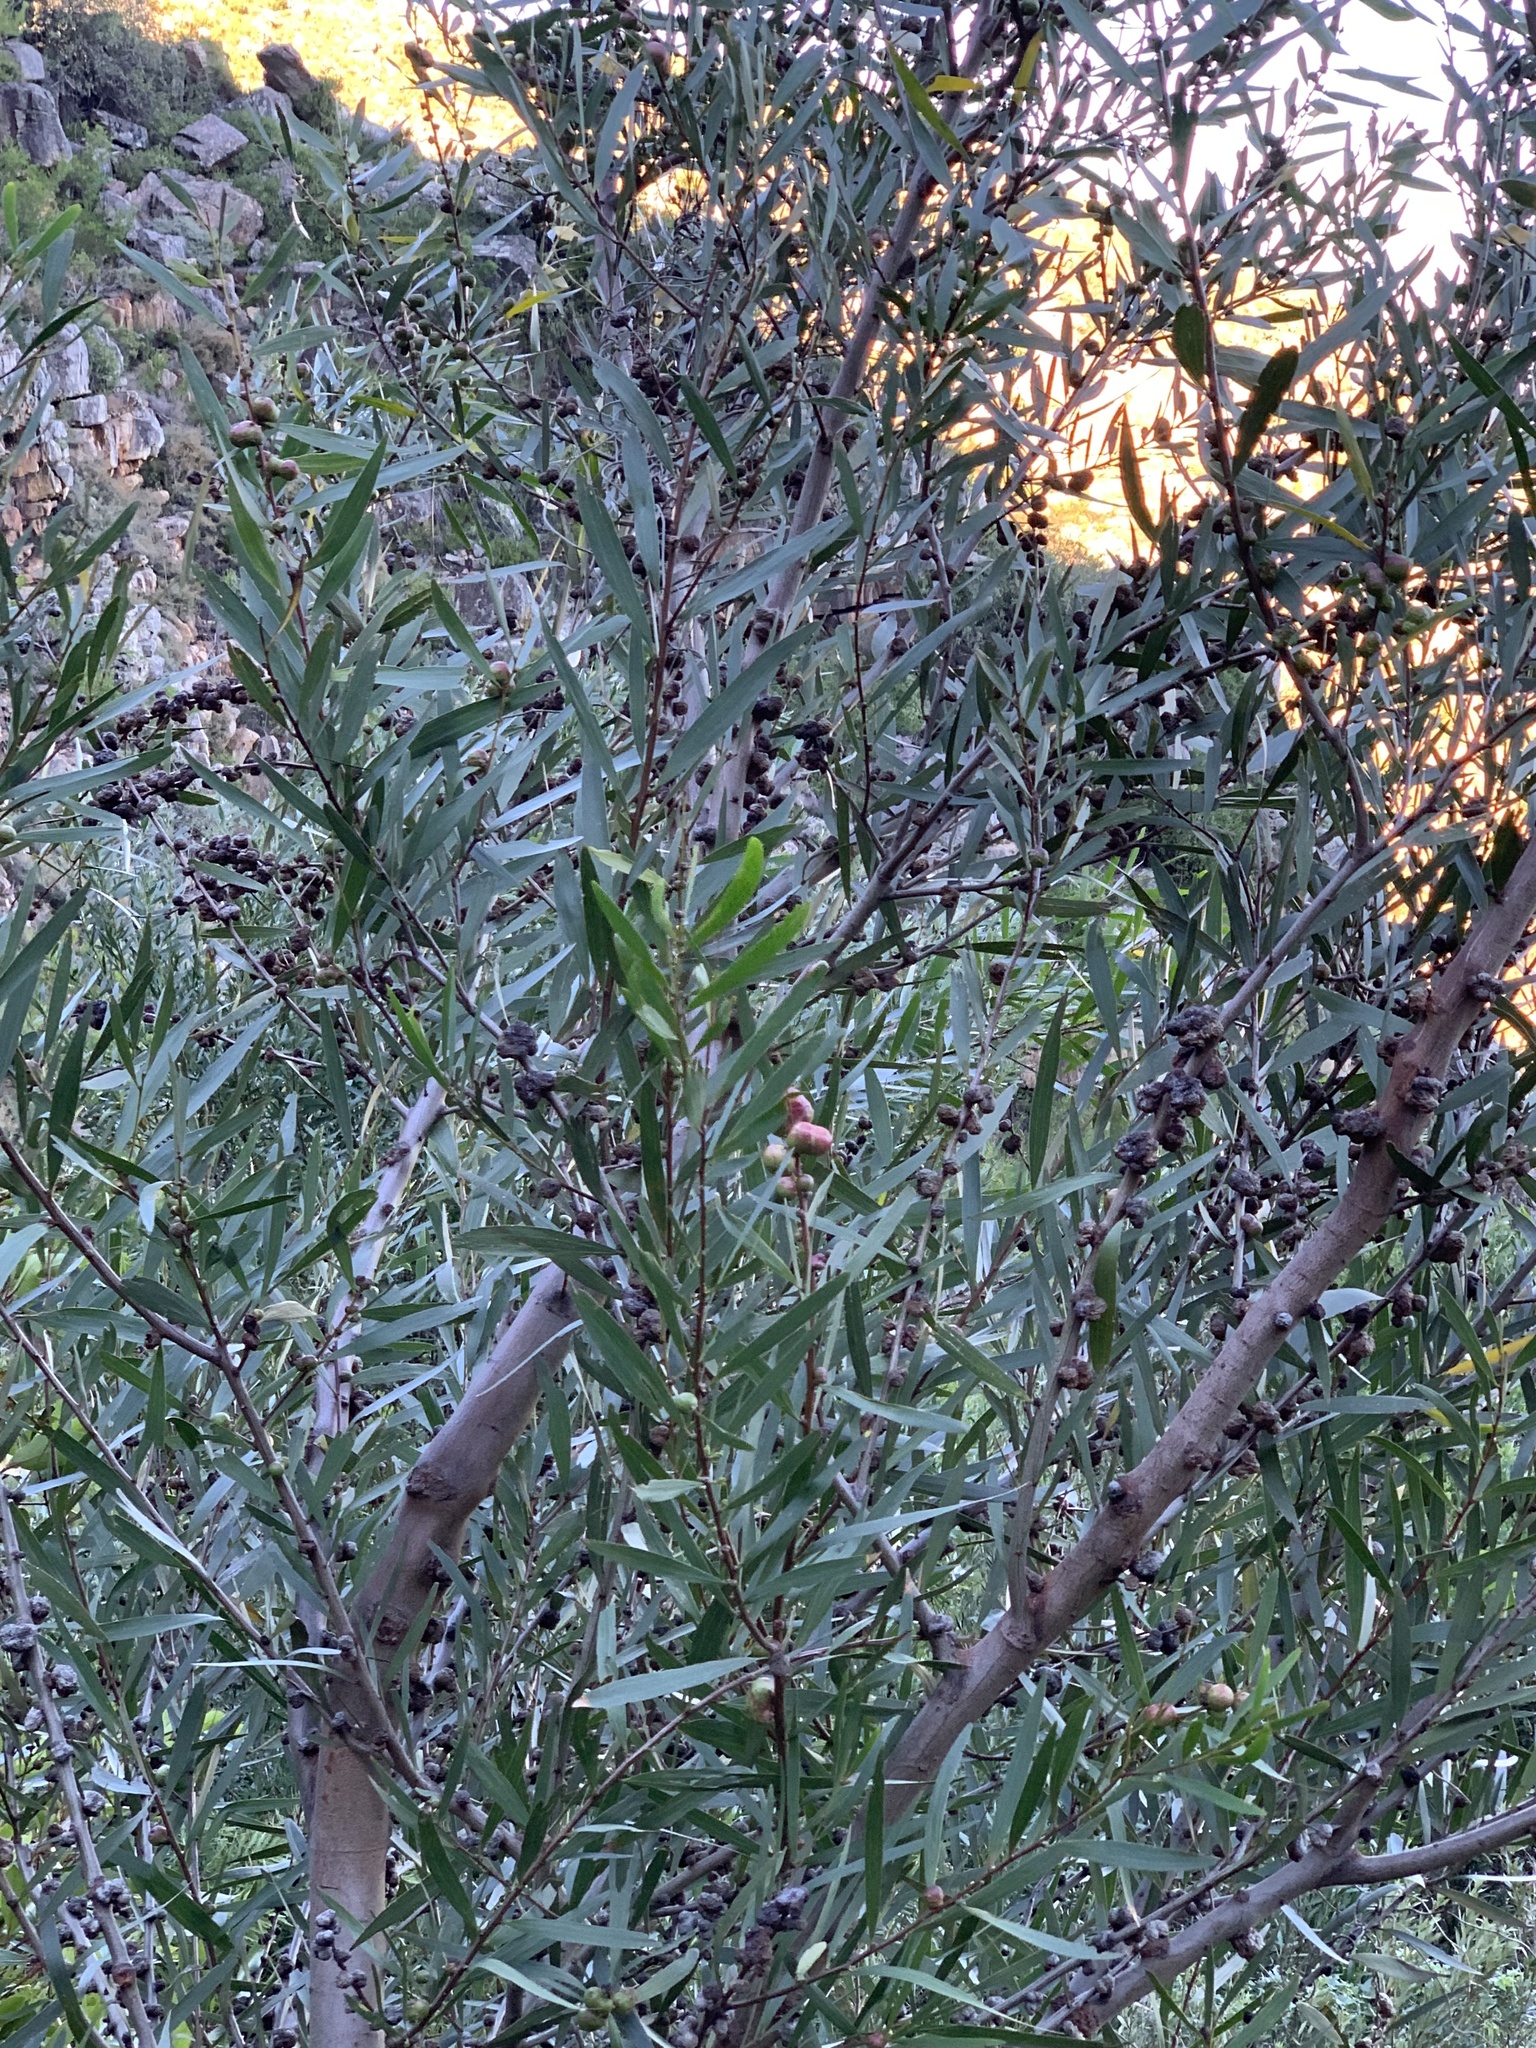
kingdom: Plantae
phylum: Tracheophyta
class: Magnoliopsida
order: Fabales
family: Fabaceae
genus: Acacia
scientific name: Acacia longifolia
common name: Sydney golden wattle
